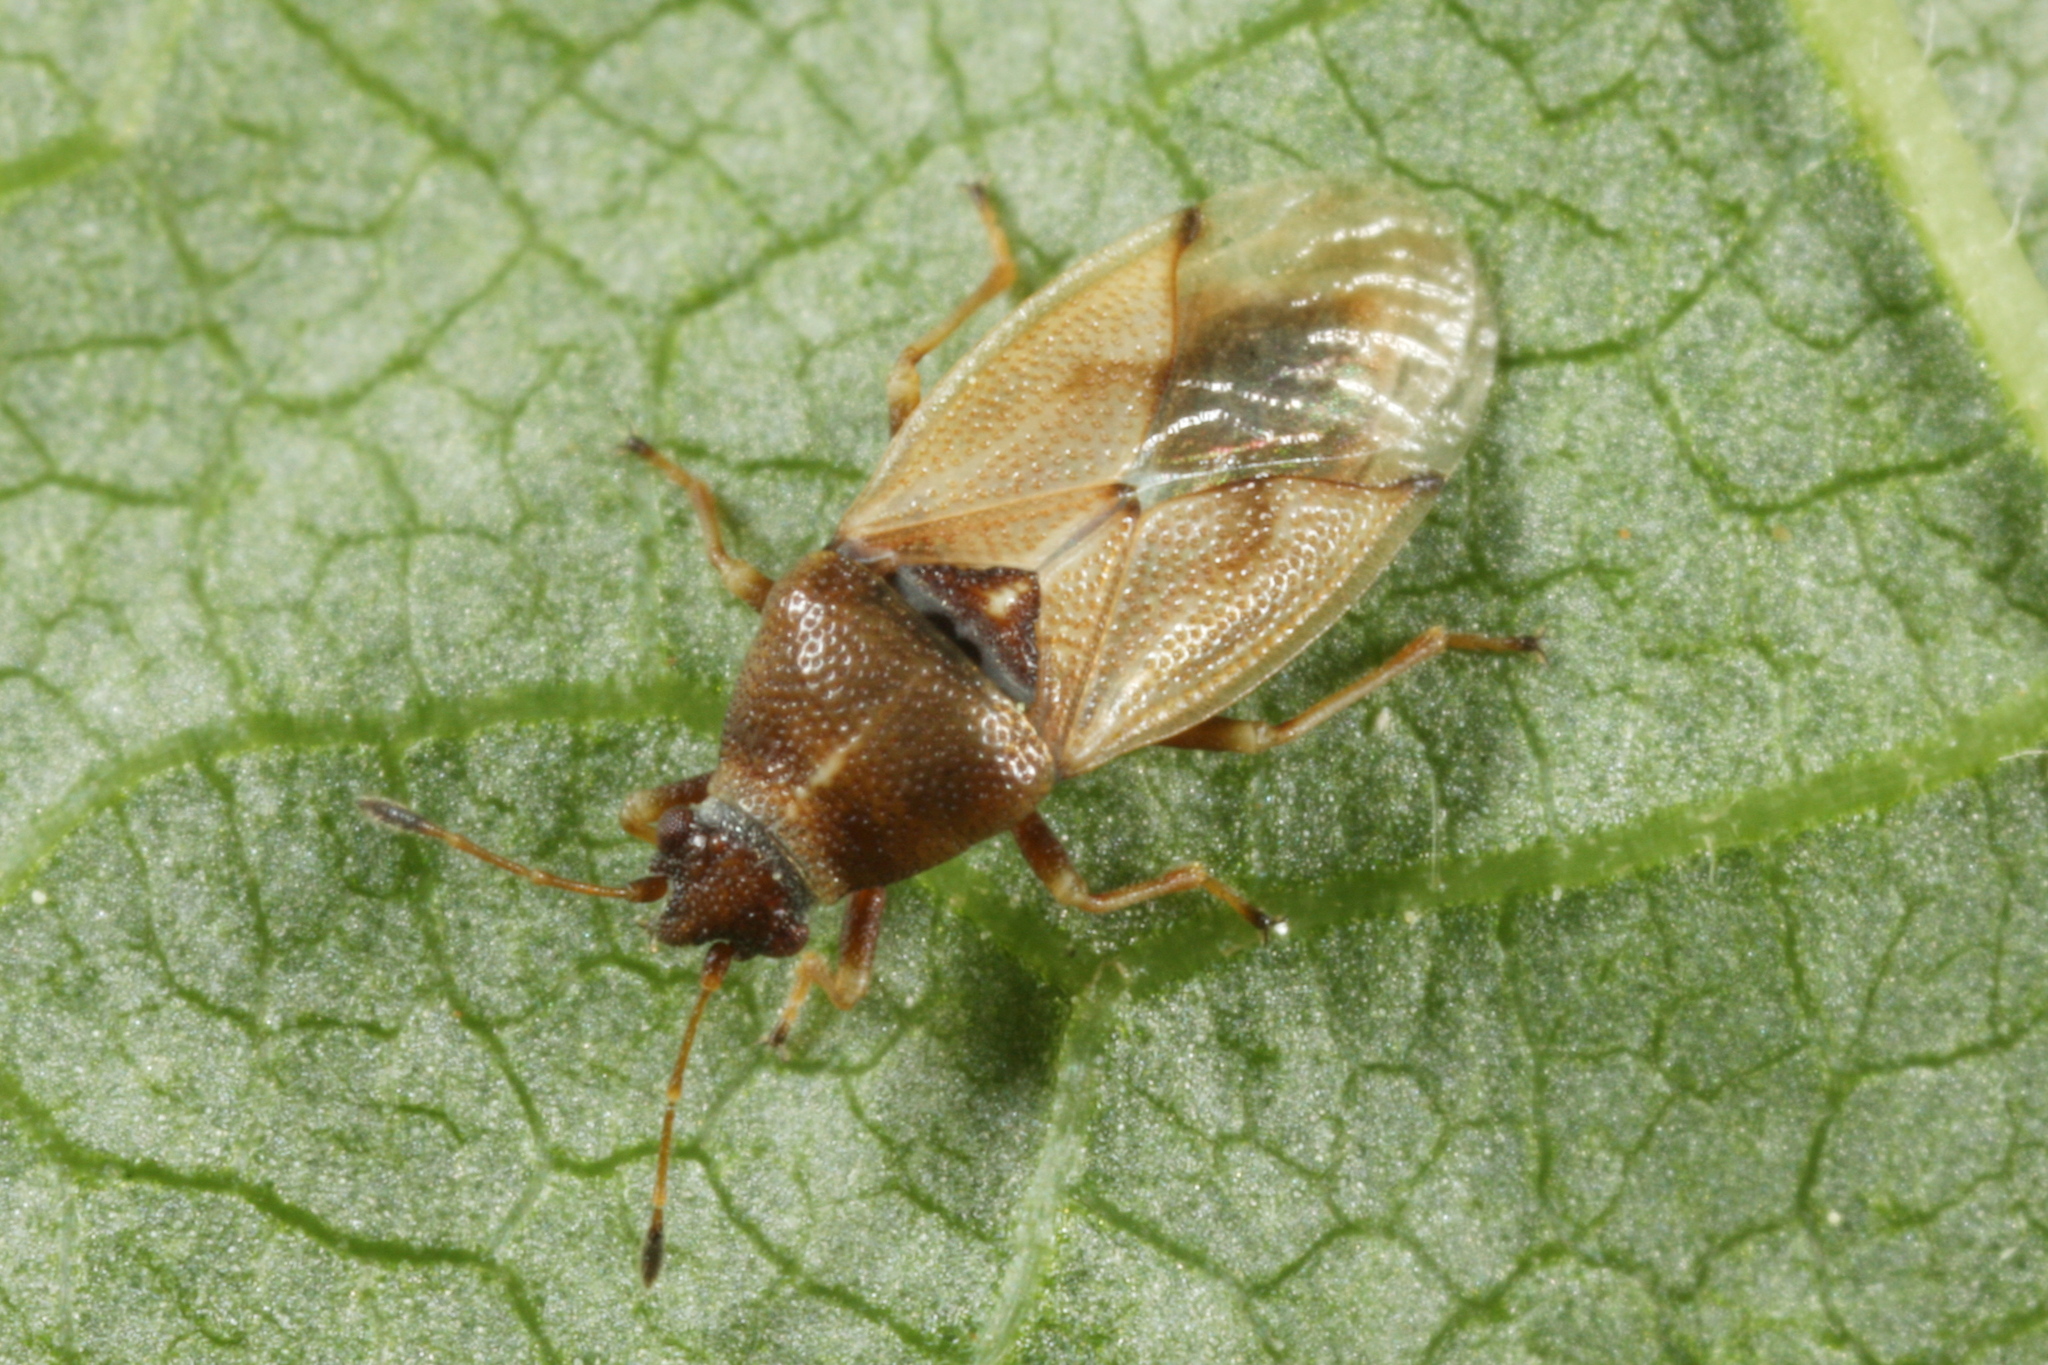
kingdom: Animalia
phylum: Arthropoda
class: Insecta
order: Hemiptera
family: Cymidae
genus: Cymus
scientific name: Cymus aurescens
